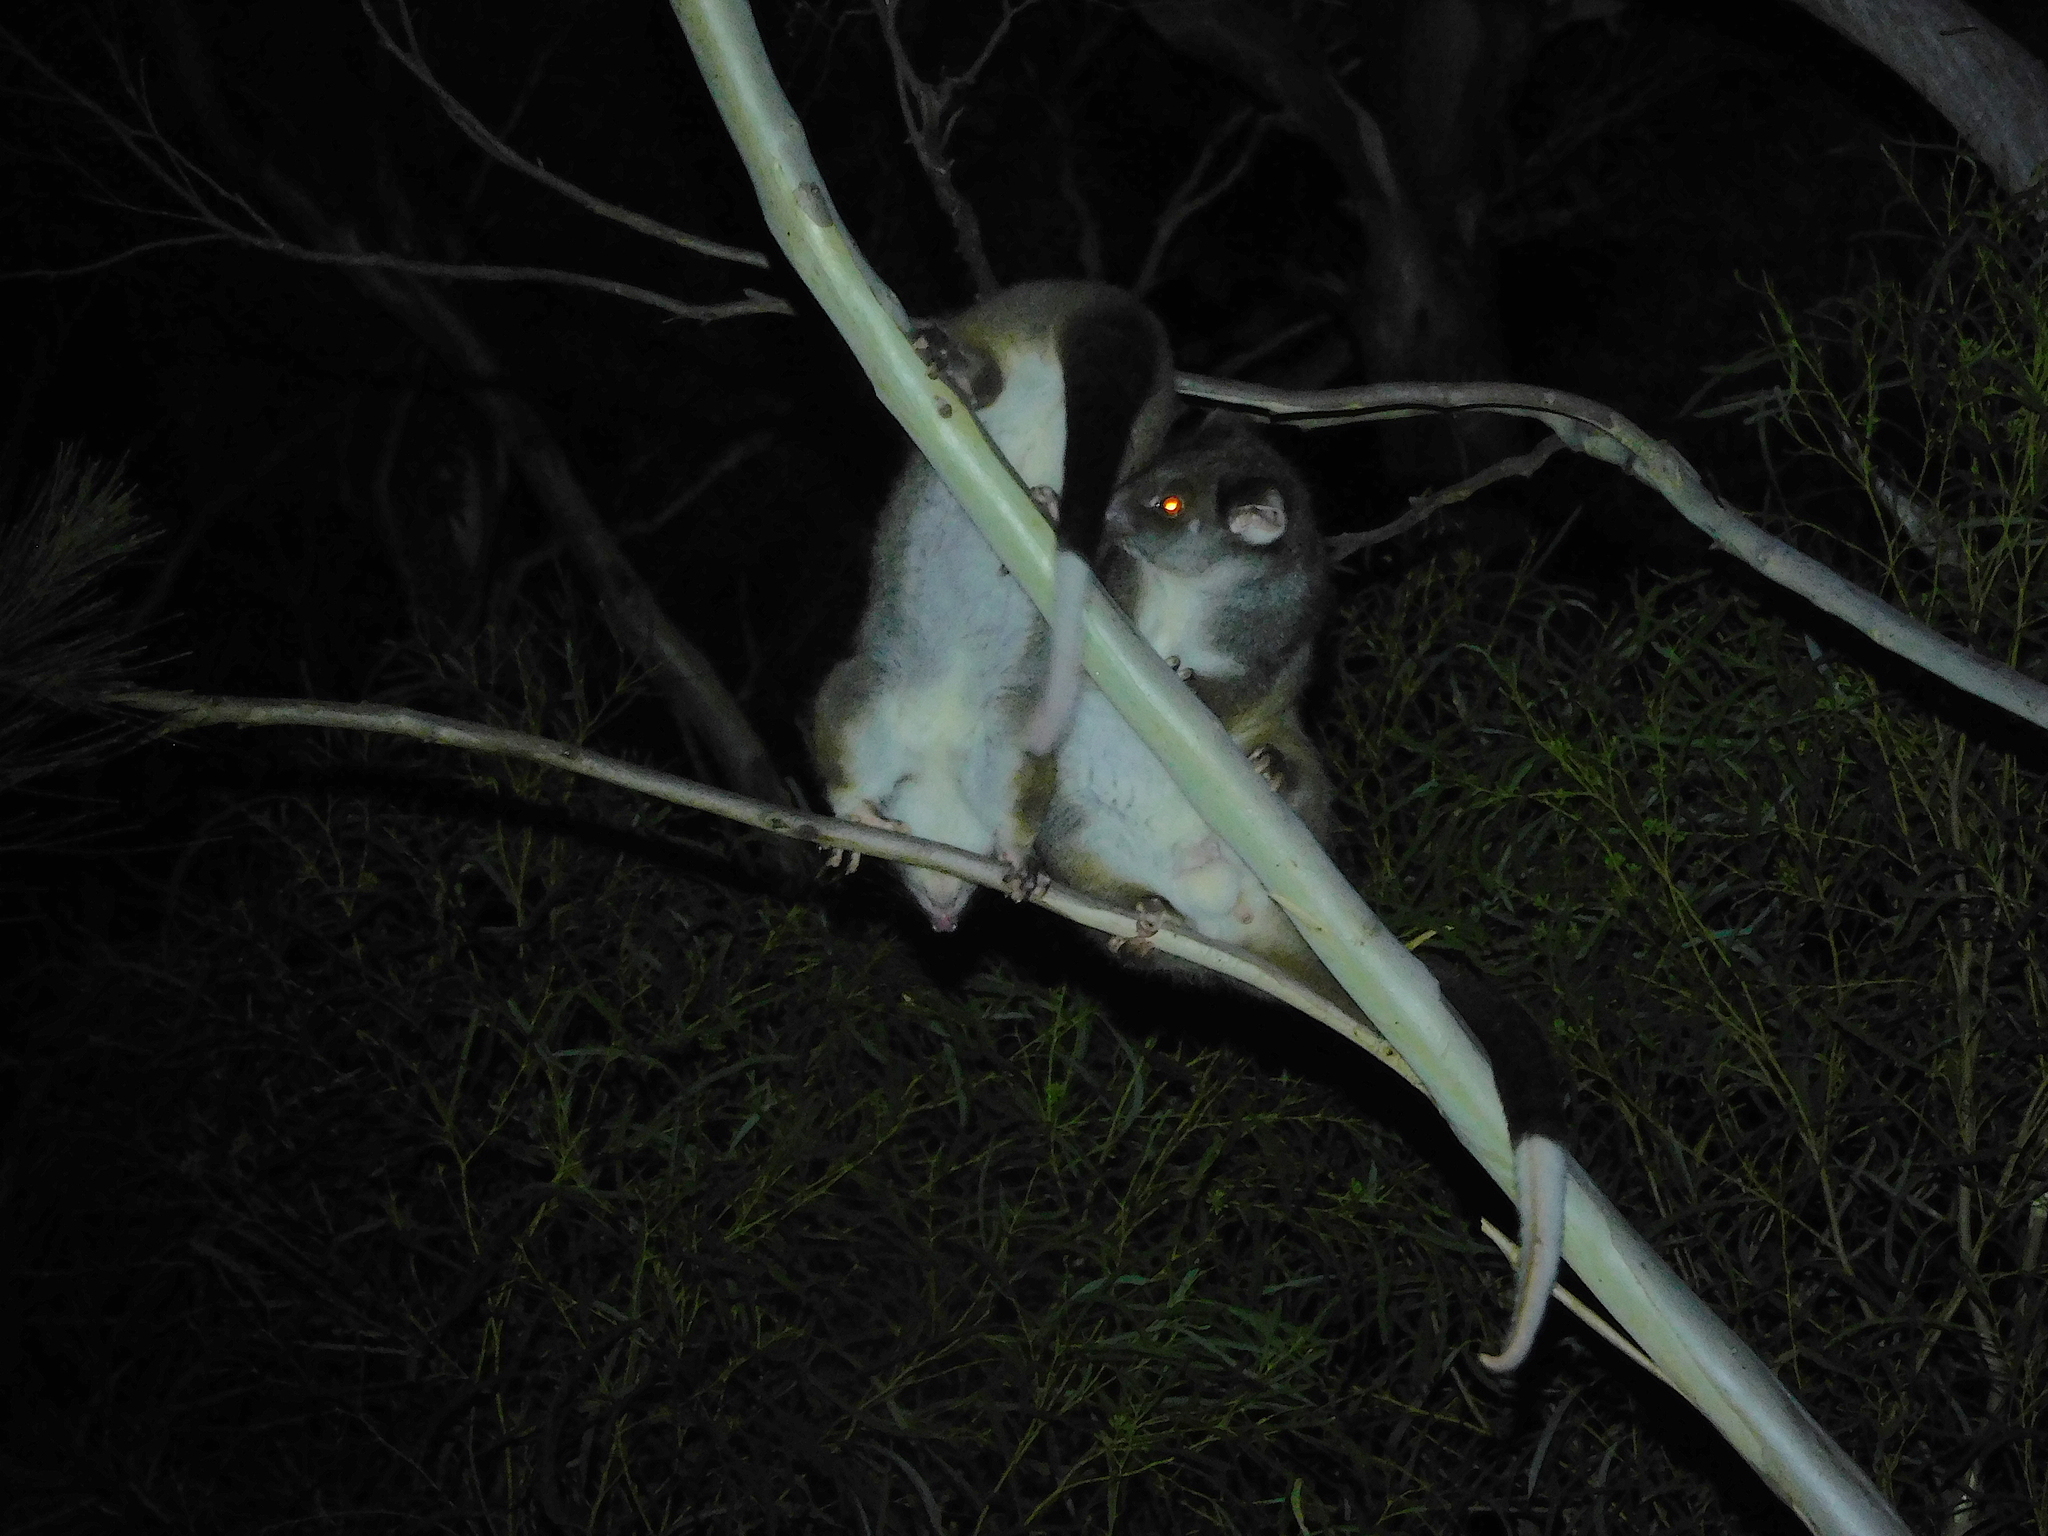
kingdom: Animalia
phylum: Chordata
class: Mammalia
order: Diprotodontia
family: Pseudocheiridae
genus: Pseudocheirus
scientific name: Pseudocheirus peregrinus
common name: Common ringtail possum
